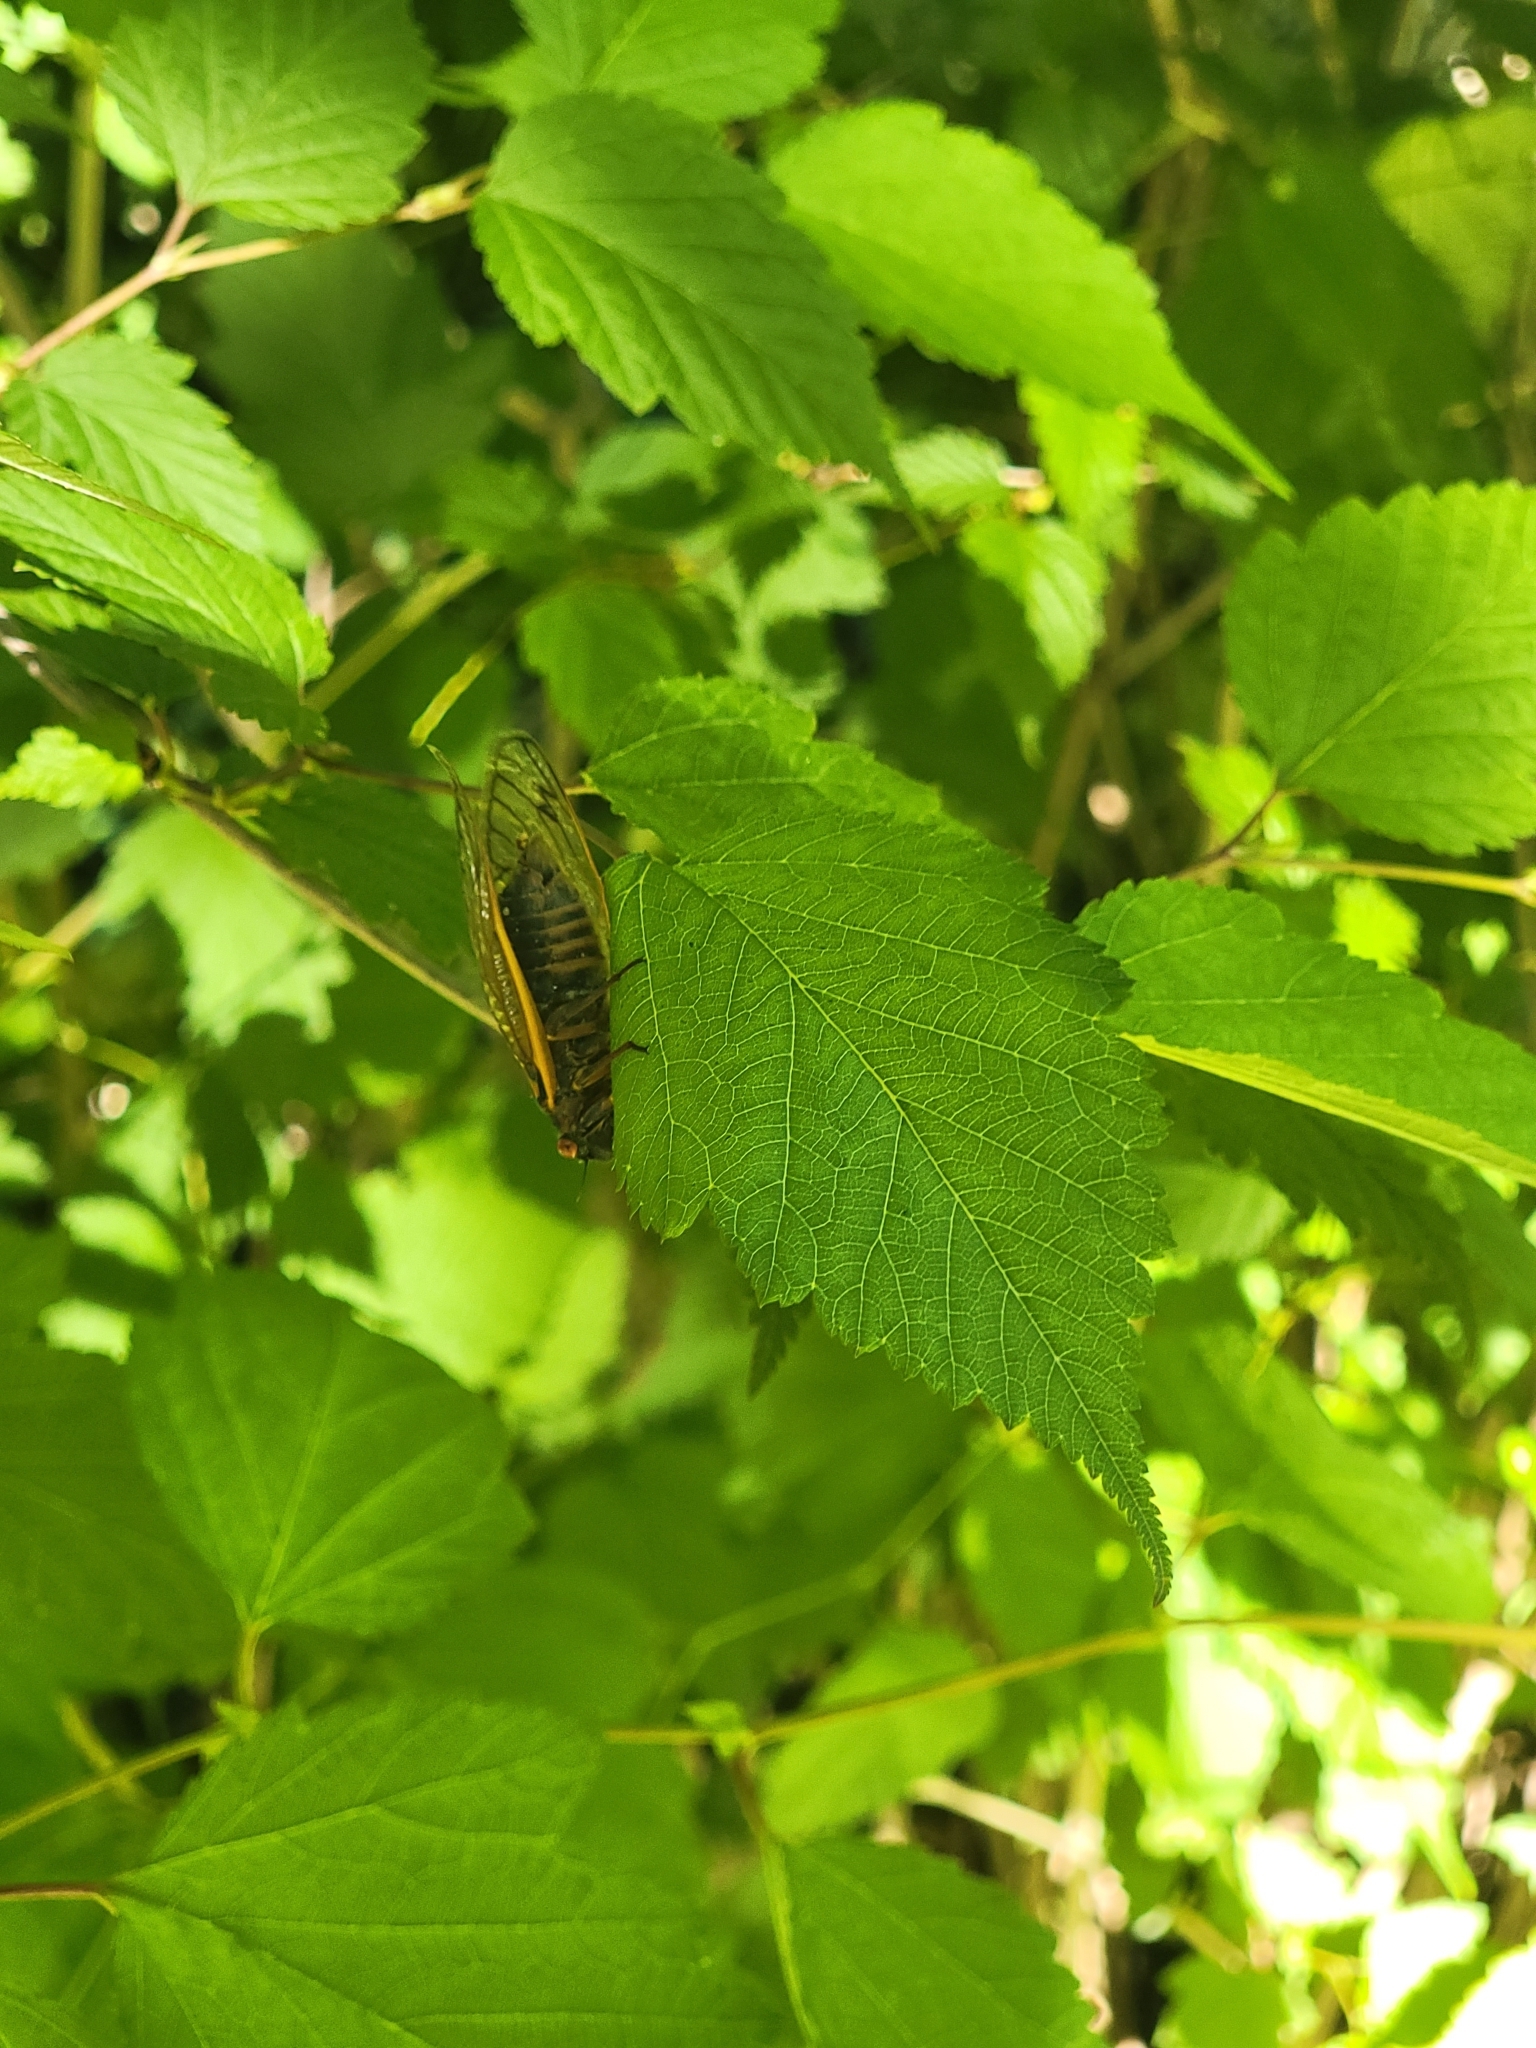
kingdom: Animalia
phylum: Arthropoda
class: Insecta
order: Hemiptera
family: Cicadidae
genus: Magicicada
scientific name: Magicicada septendecim
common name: Periodical cicada
